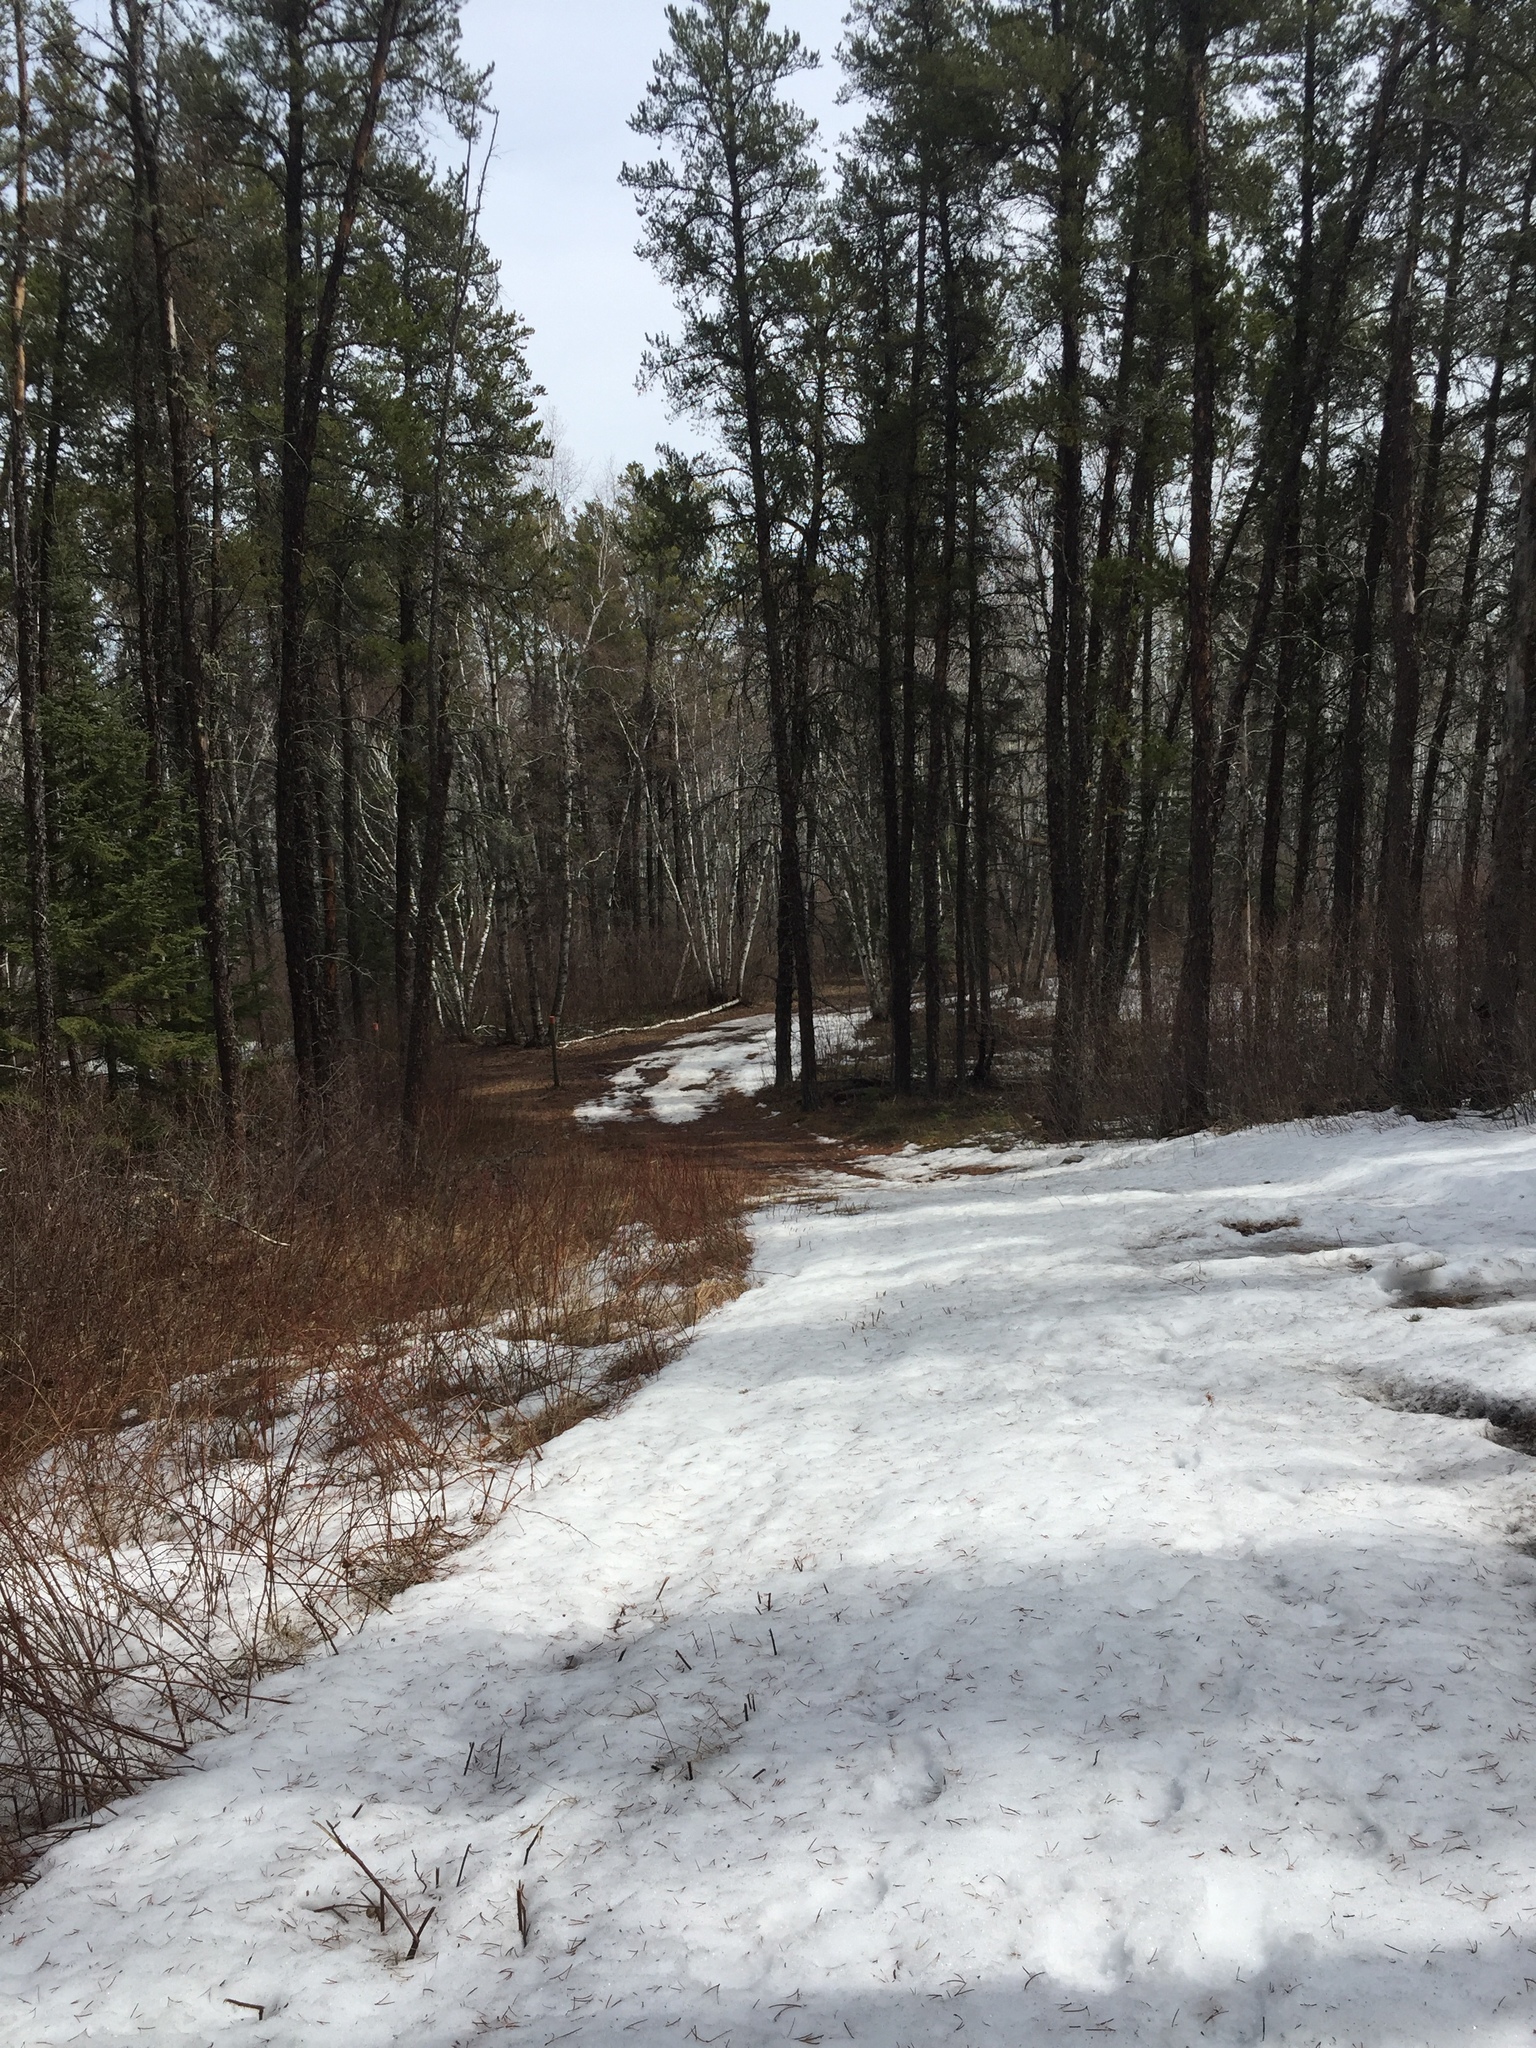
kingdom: Plantae
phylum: Tracheophyta
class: Pinopsida
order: Pinales
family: Pinaceae
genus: Pinus
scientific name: Pinus banksiana
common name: Jack pine
